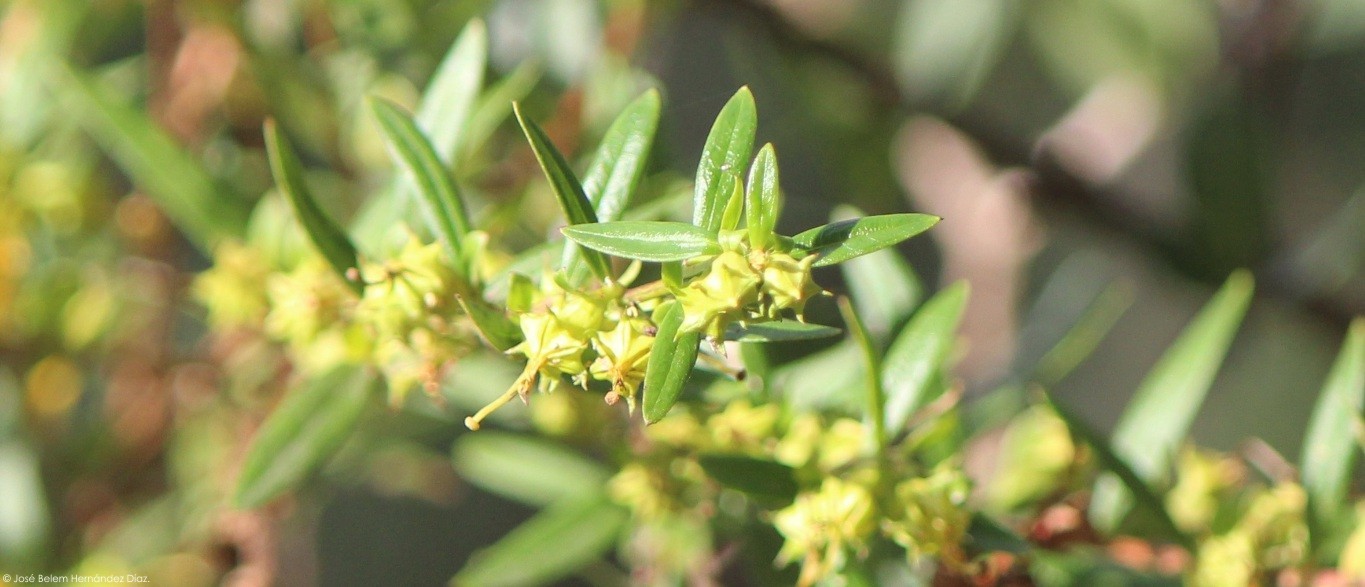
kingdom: Plantae
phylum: Tracheophyta
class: Magnoliopsida
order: Myrtales
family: Lythraceae
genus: Heimia
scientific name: Heimia salicifolia
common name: Willow-leaf heimia
